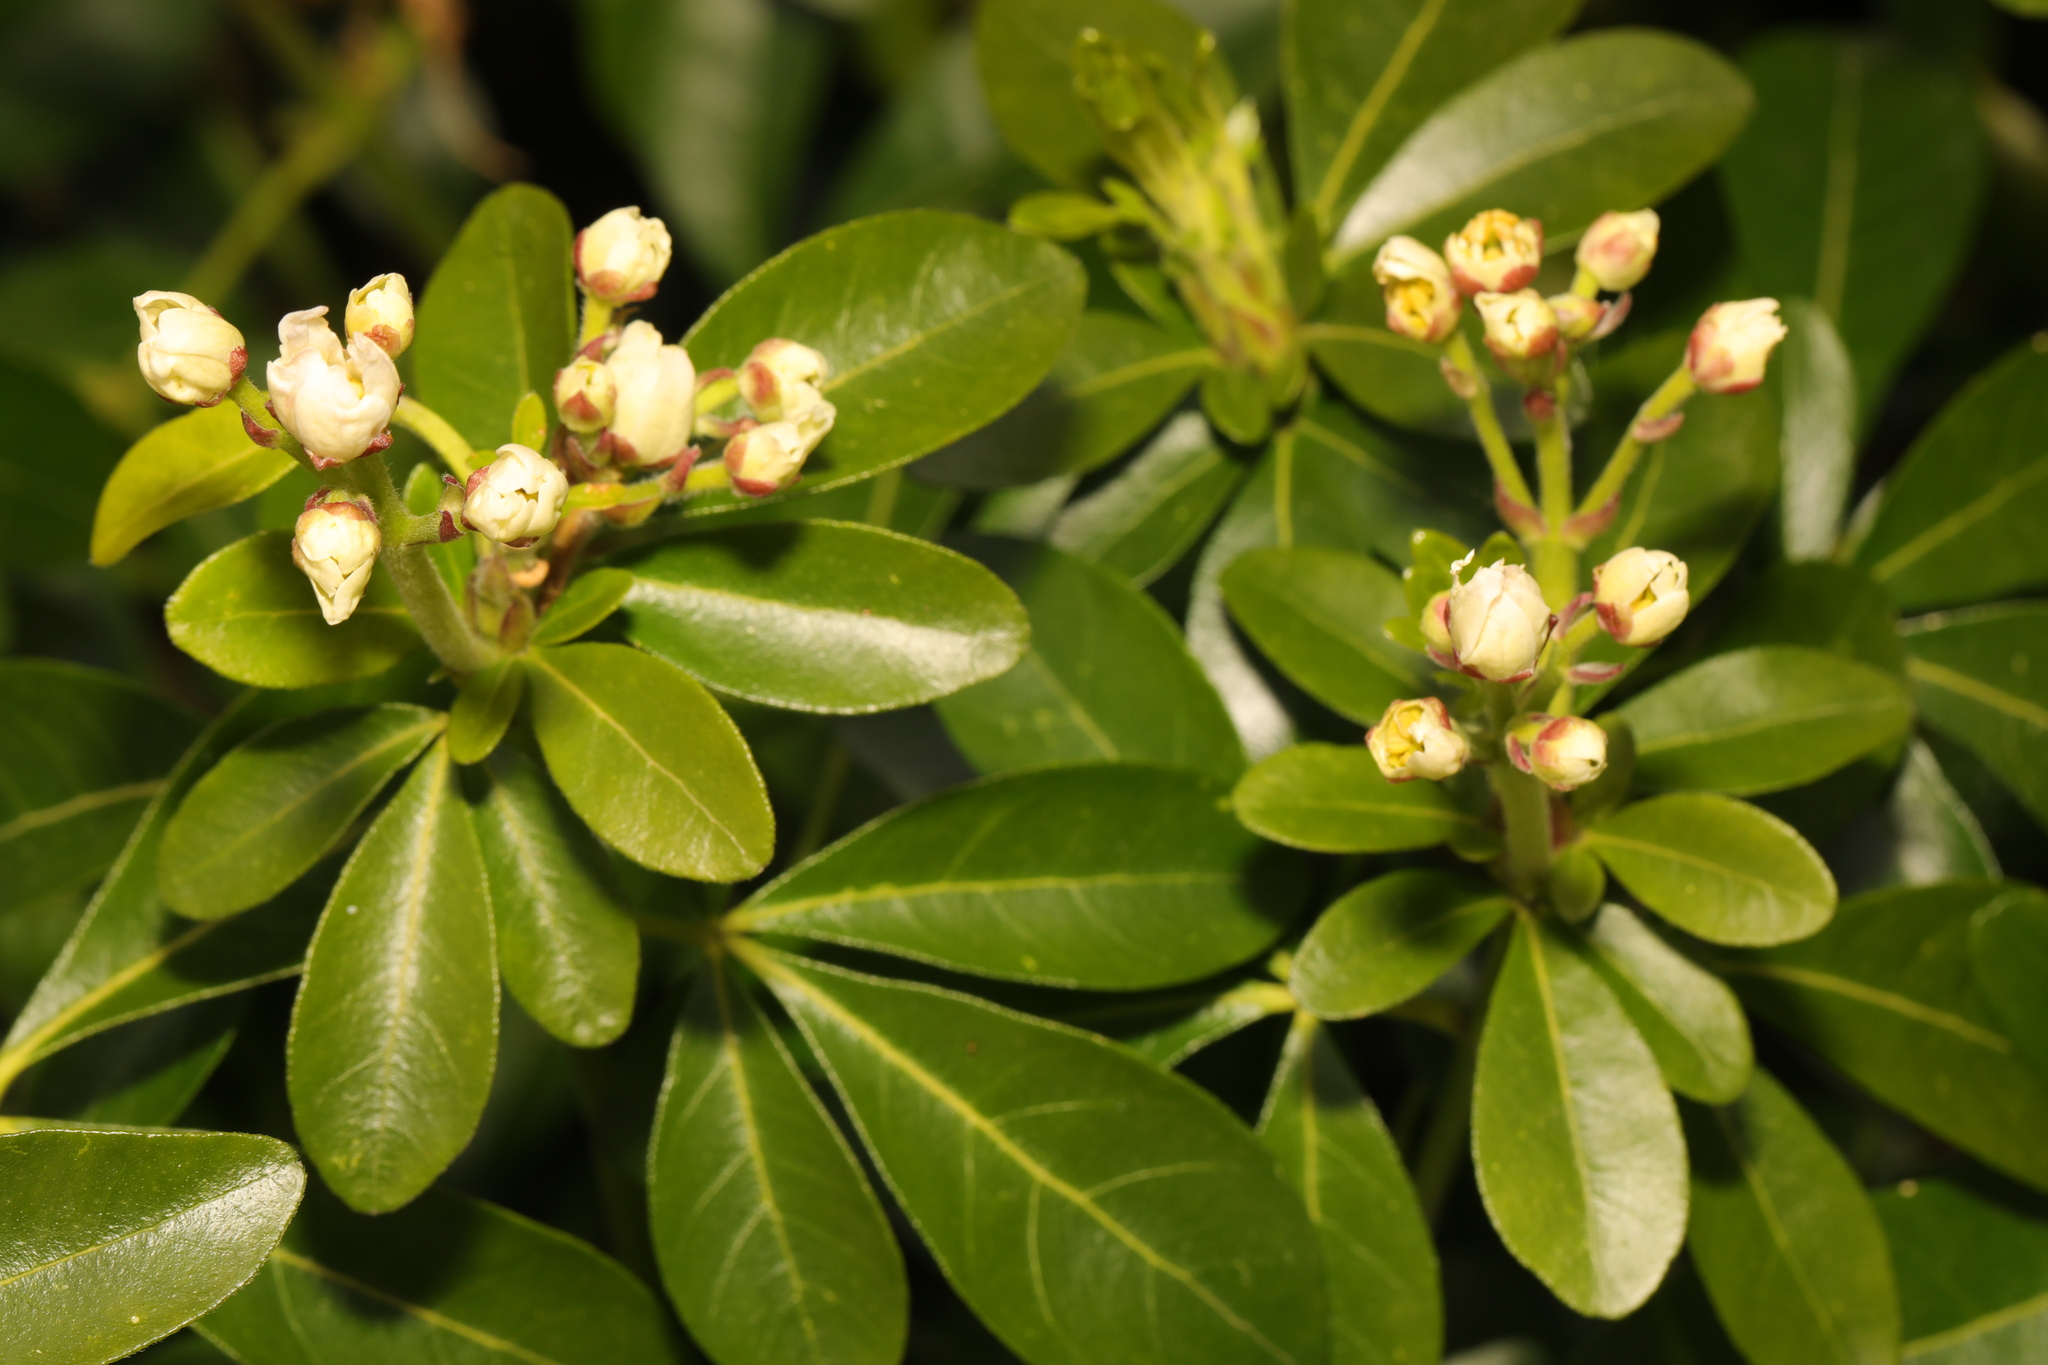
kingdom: Plantae
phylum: Tracheophyta
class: Magnoliopsida
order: Sapindales
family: Rutaceae
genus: Choisya
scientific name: Choisya ternata
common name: Mexican orange
